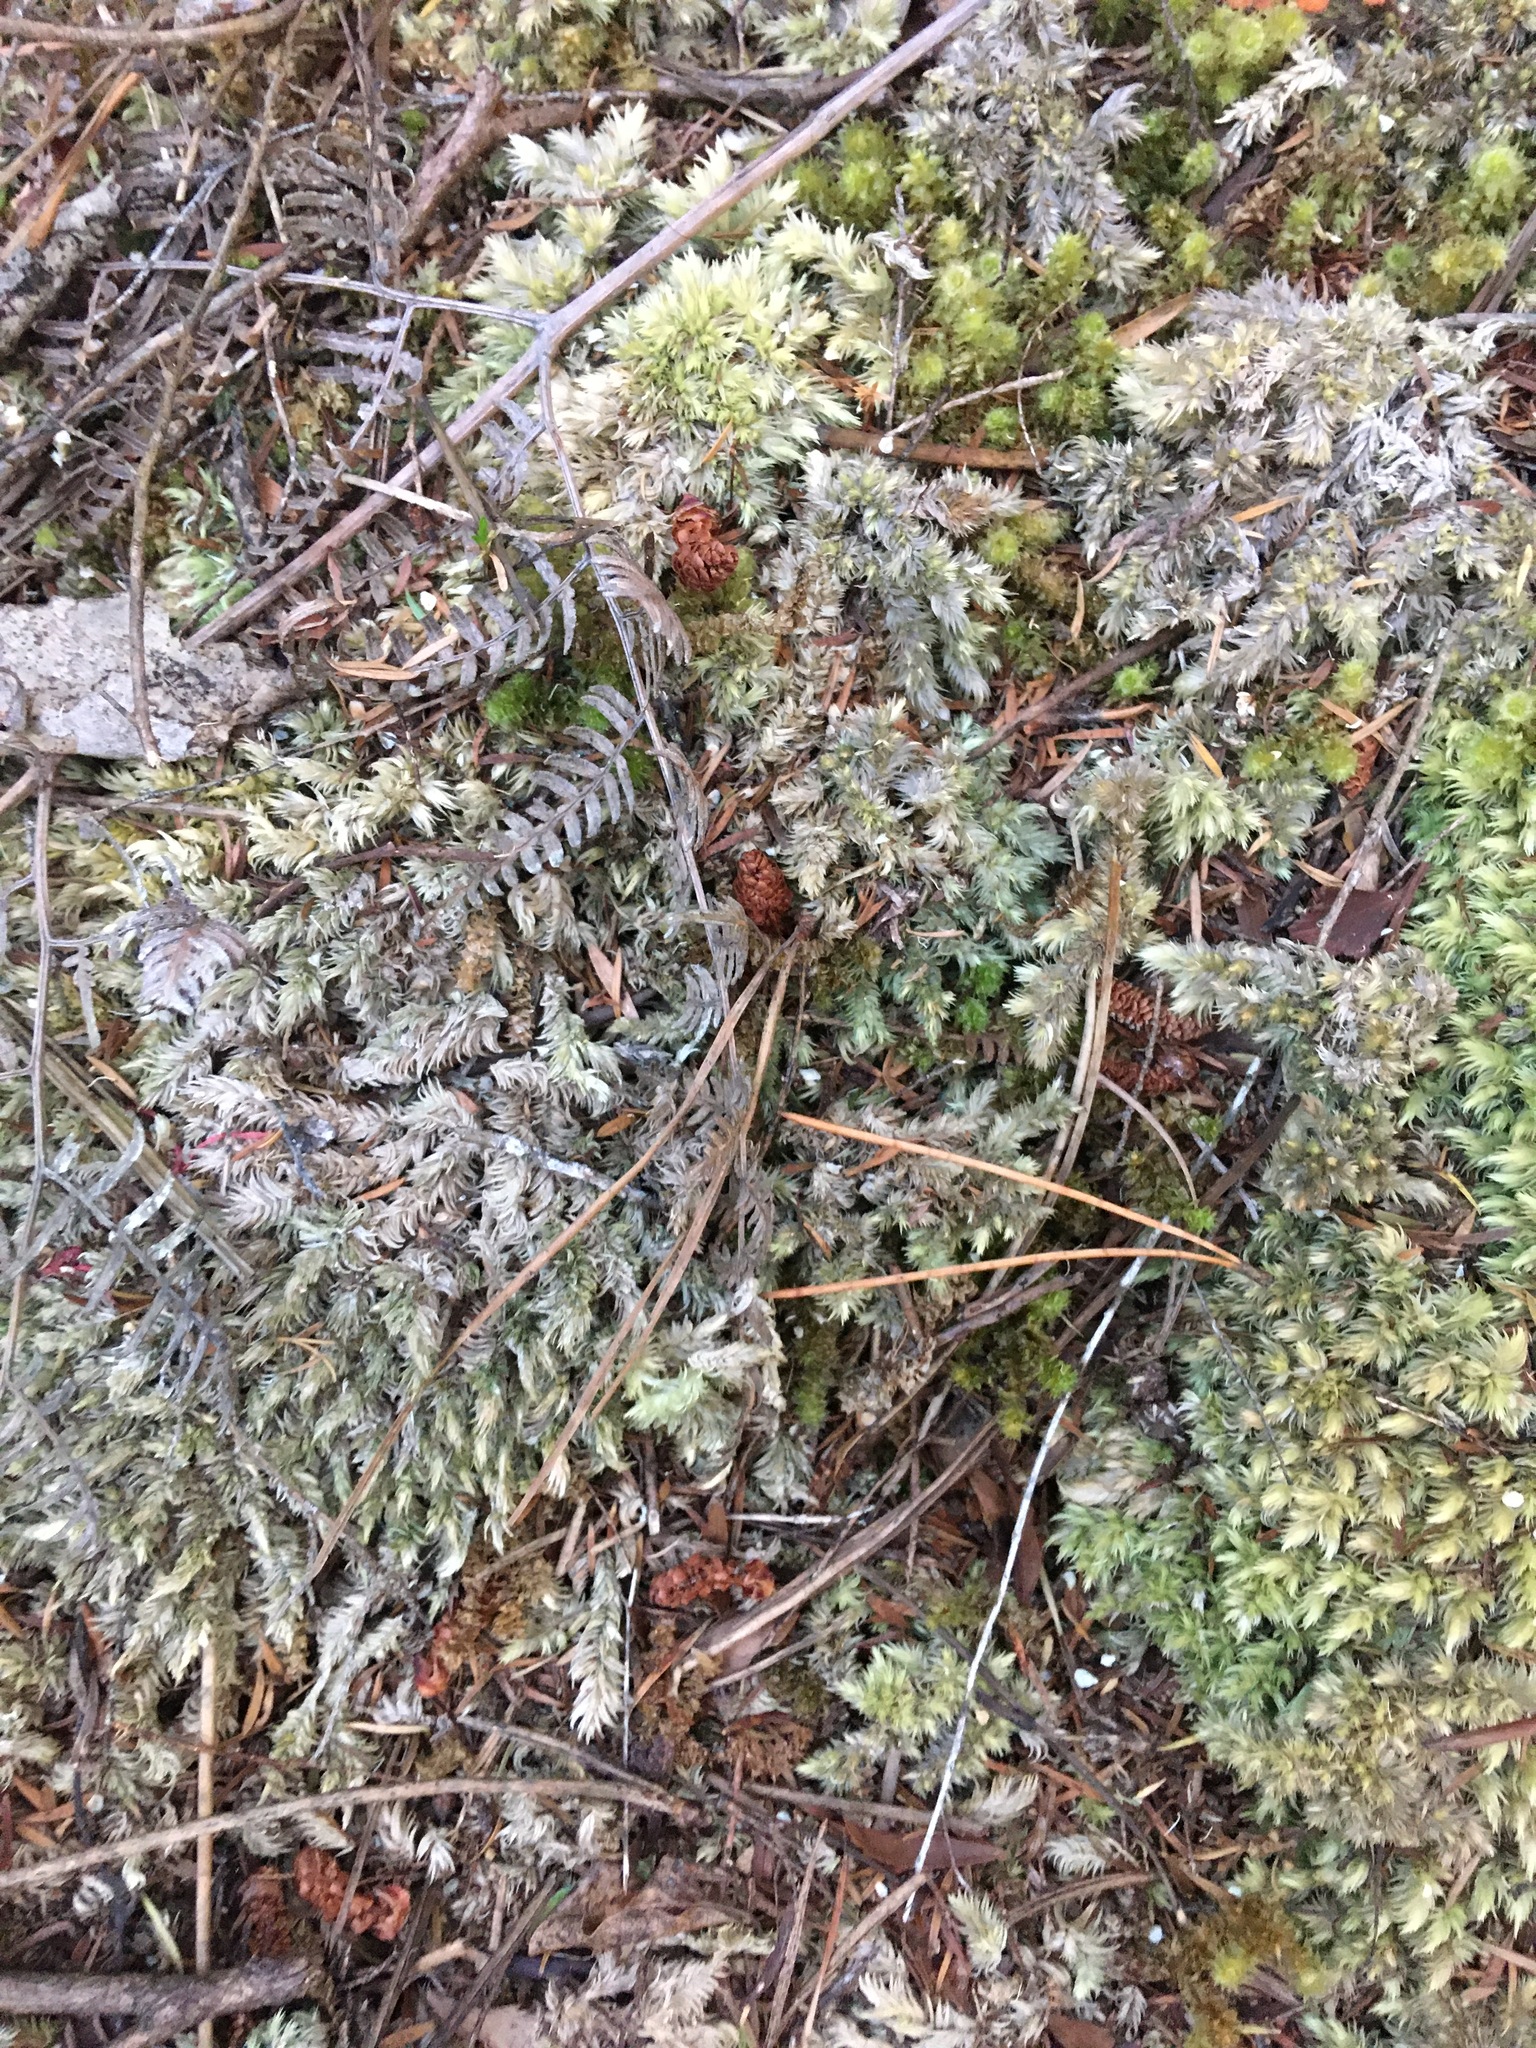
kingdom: Plantae
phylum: Bryophyta
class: Bryopsida
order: Dicranales
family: Leucobryaceae
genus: Leucobryum
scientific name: Leucobryum javense
